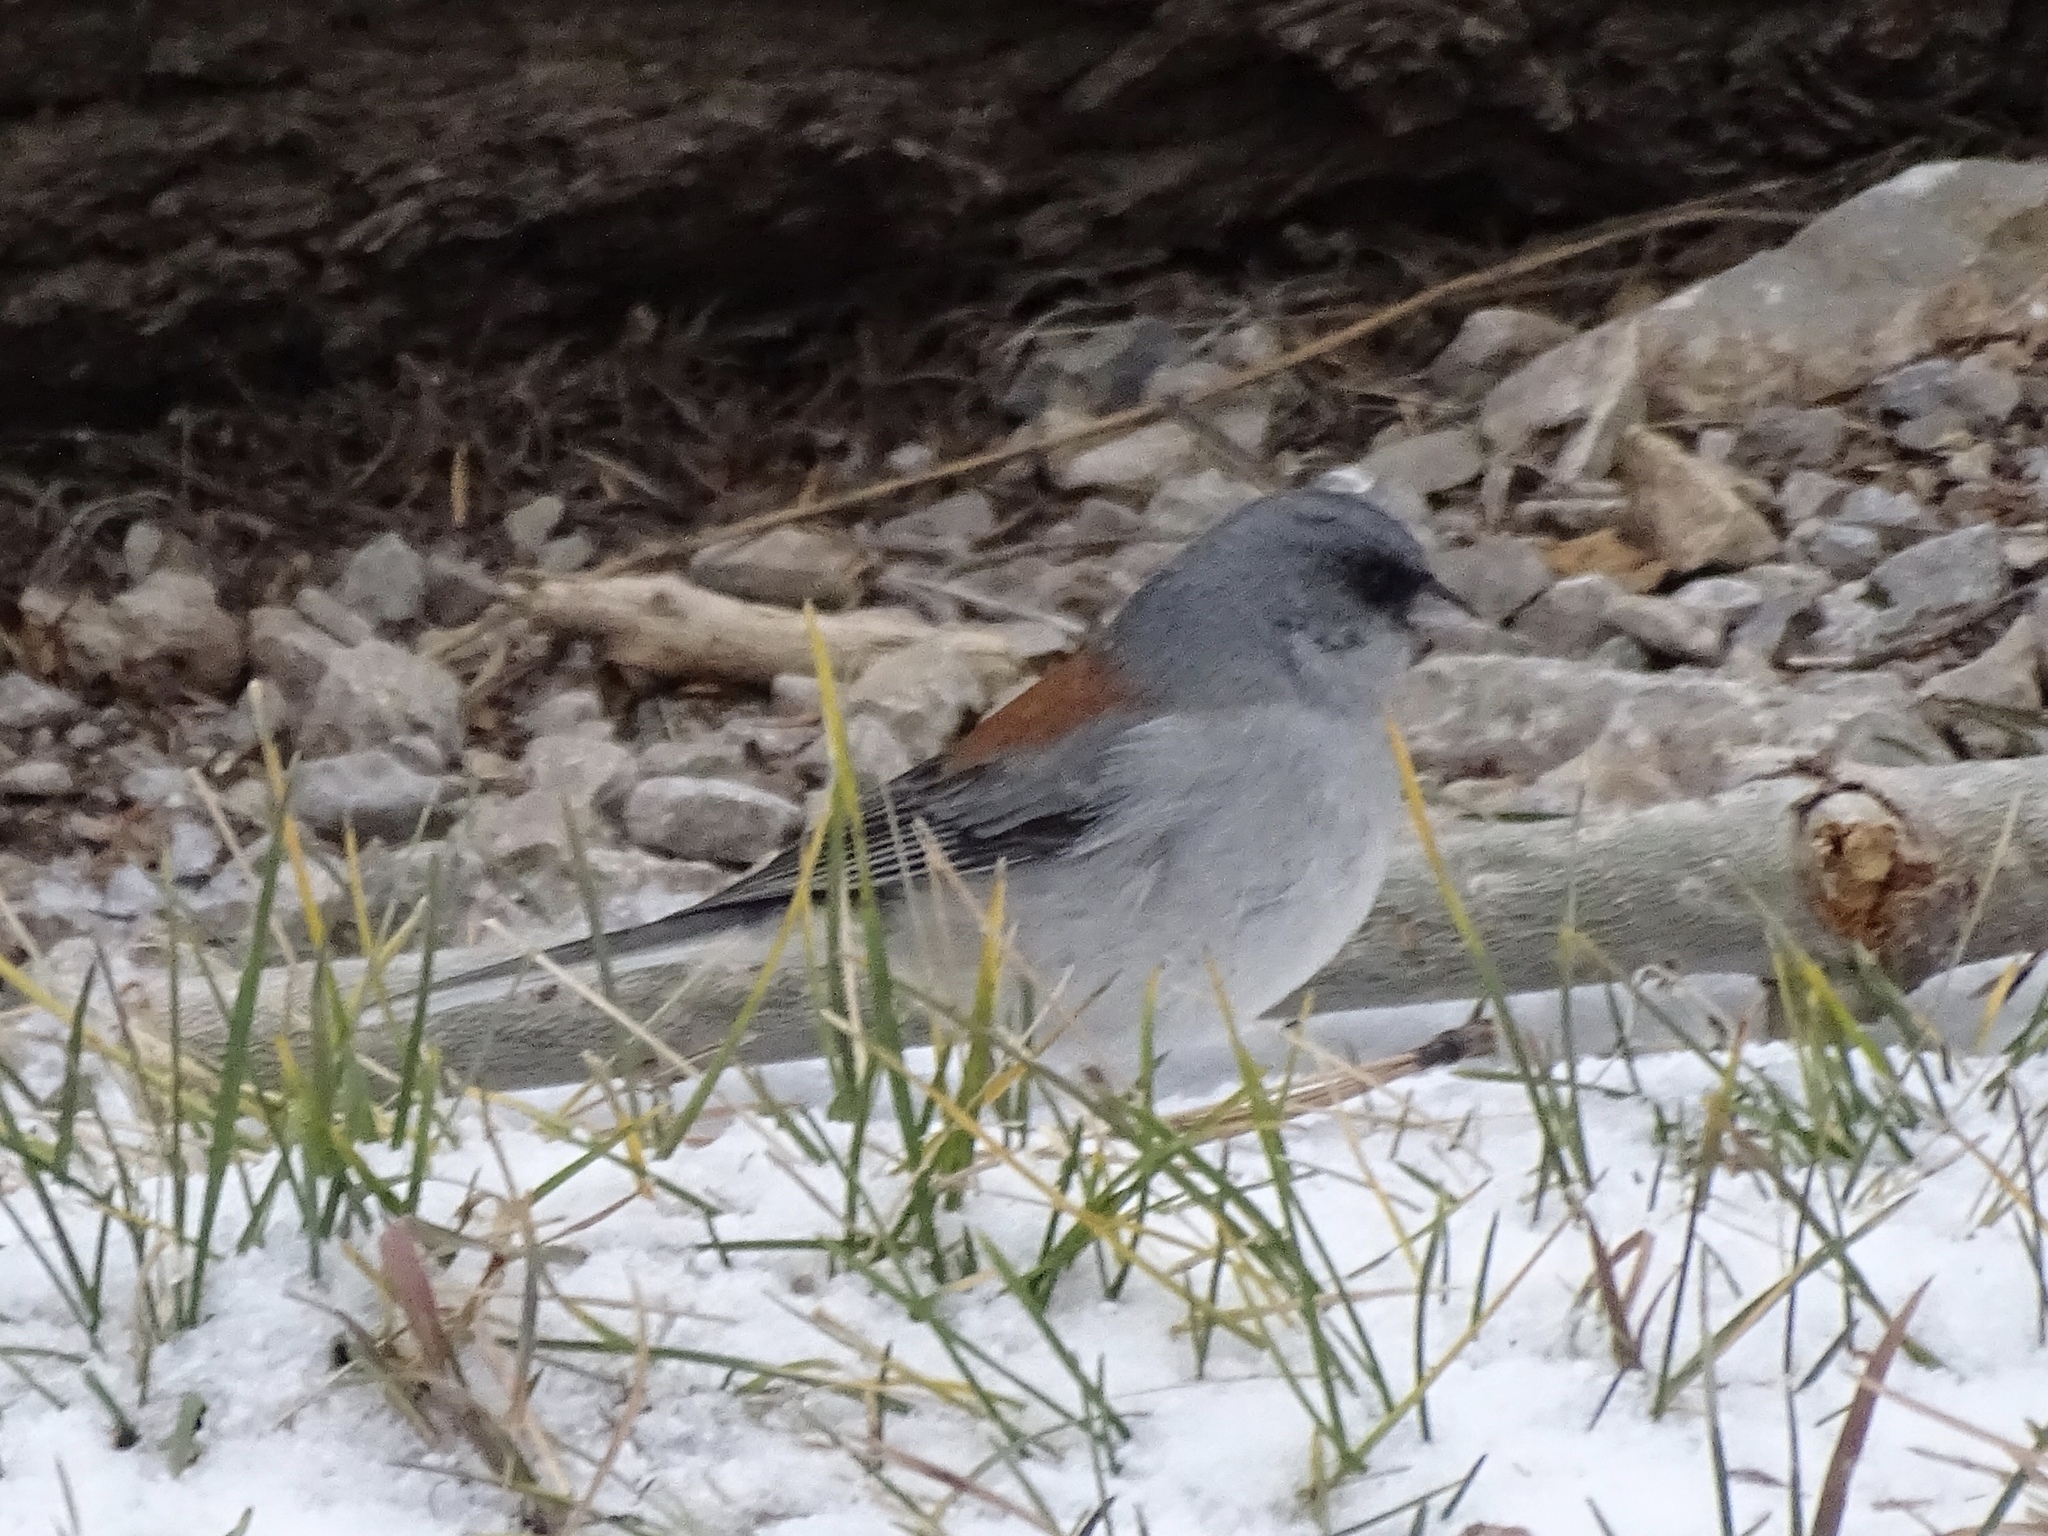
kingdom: Animalia
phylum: Chordata
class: Aves
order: Passeriformes
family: Passerellidae
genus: Junco
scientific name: Junco hyemalis
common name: Dark-eyed junco
